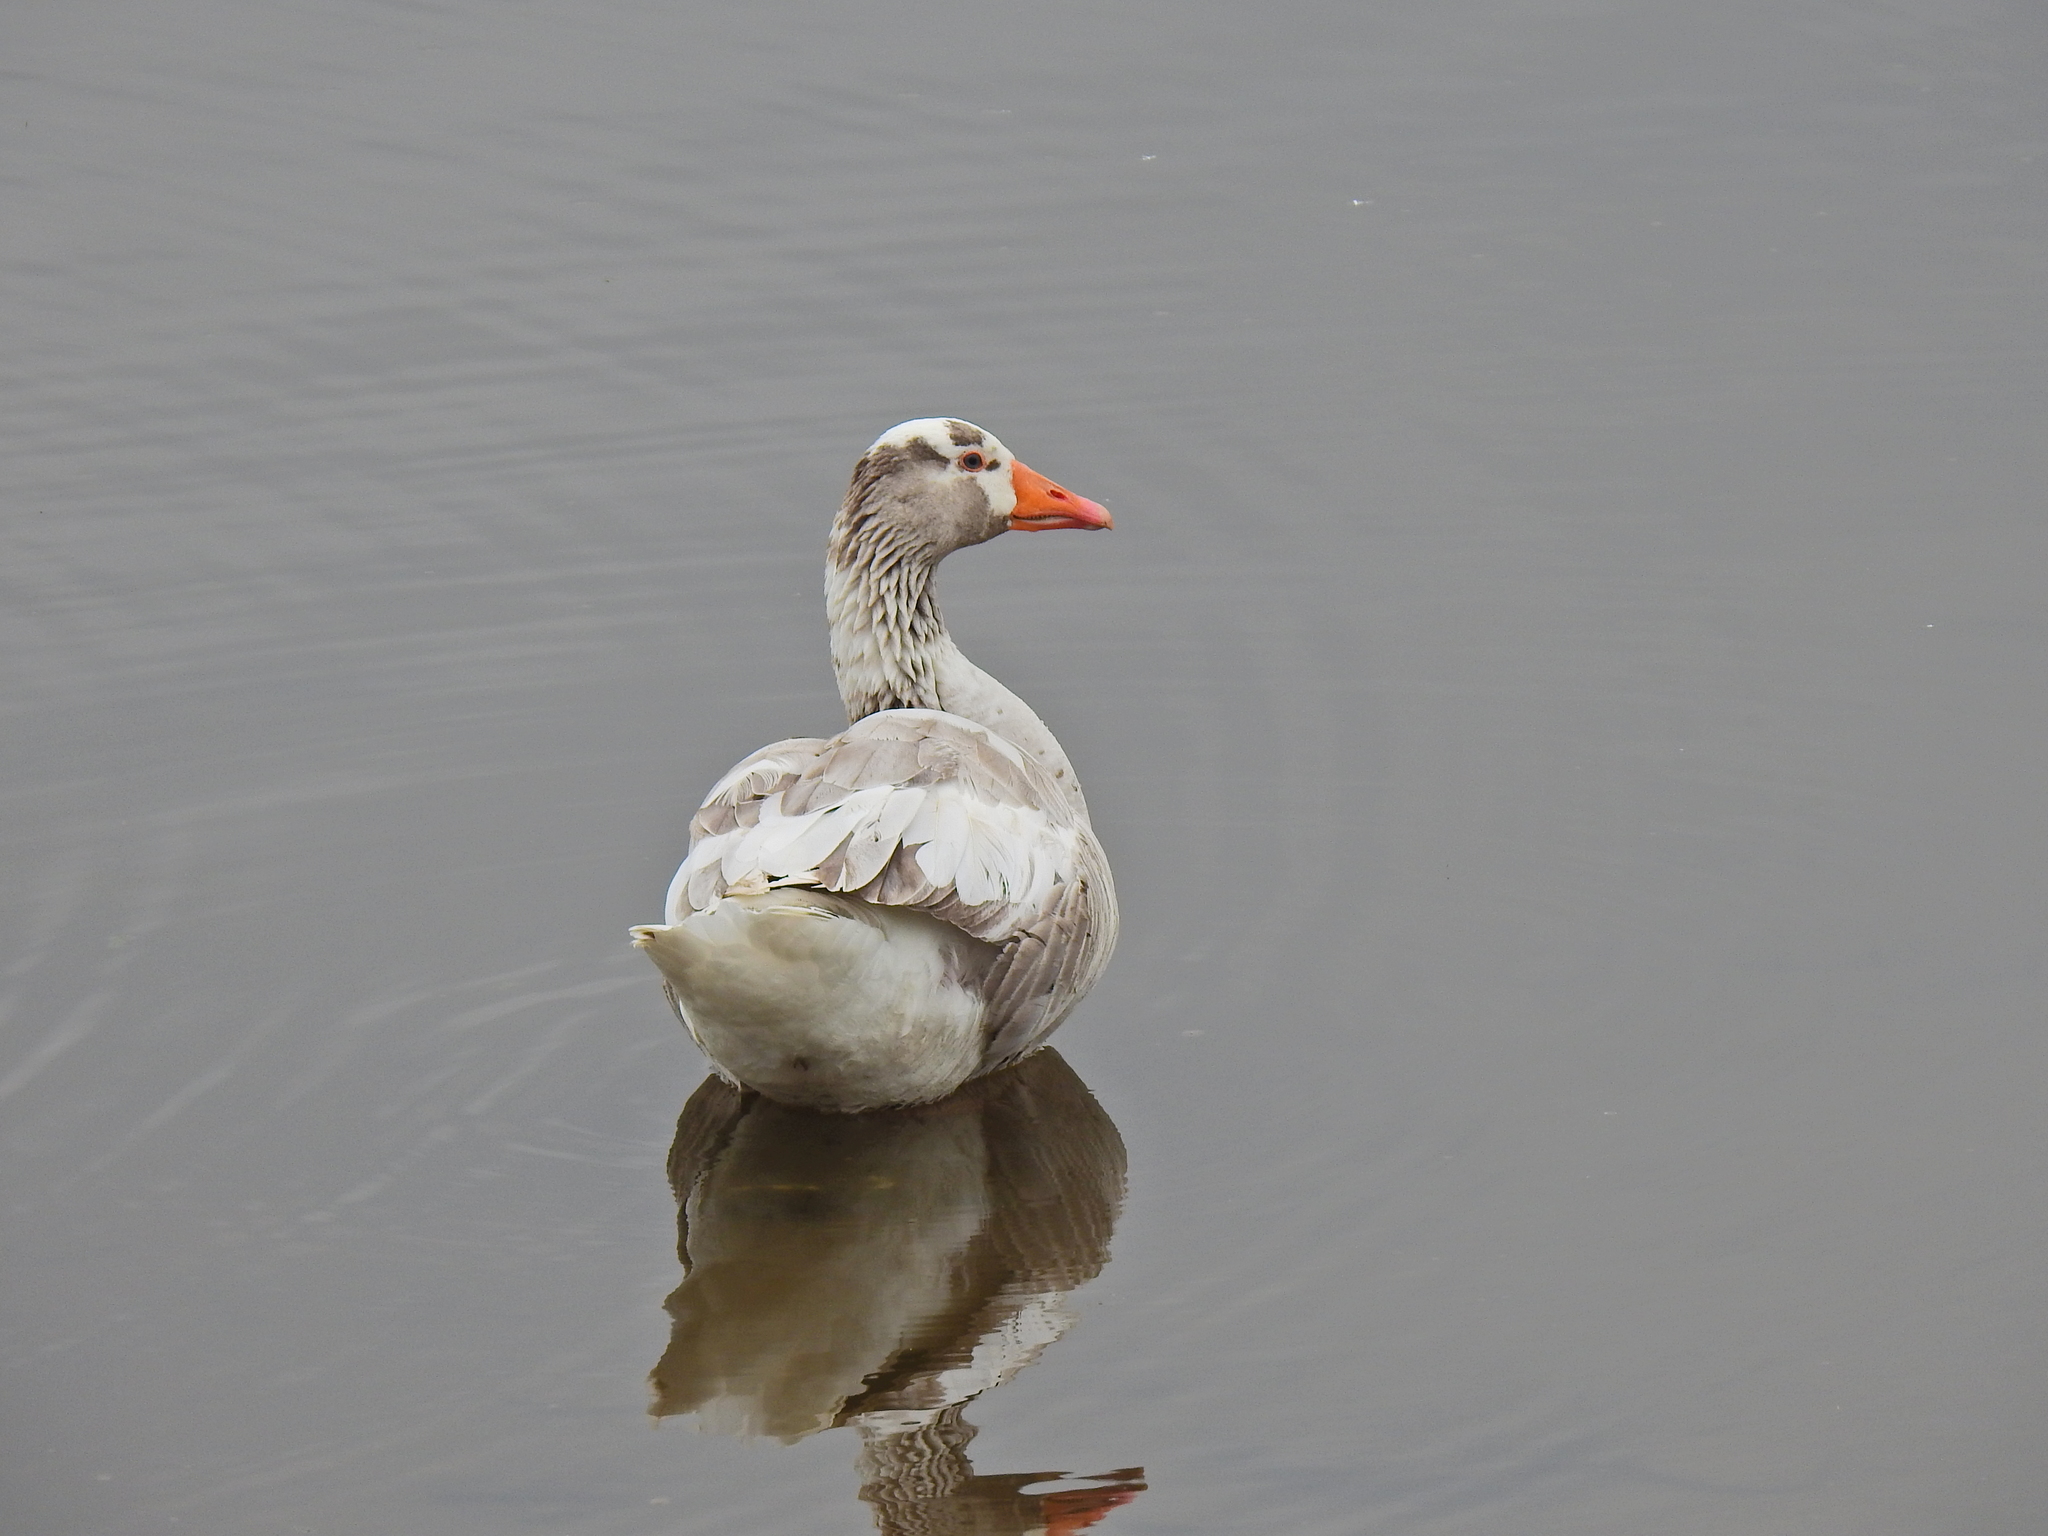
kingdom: Animalia
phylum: Chordata
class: Aves
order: Anseriformes
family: Anatidae
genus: Anser
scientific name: Anser anser
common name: Greylag goose
